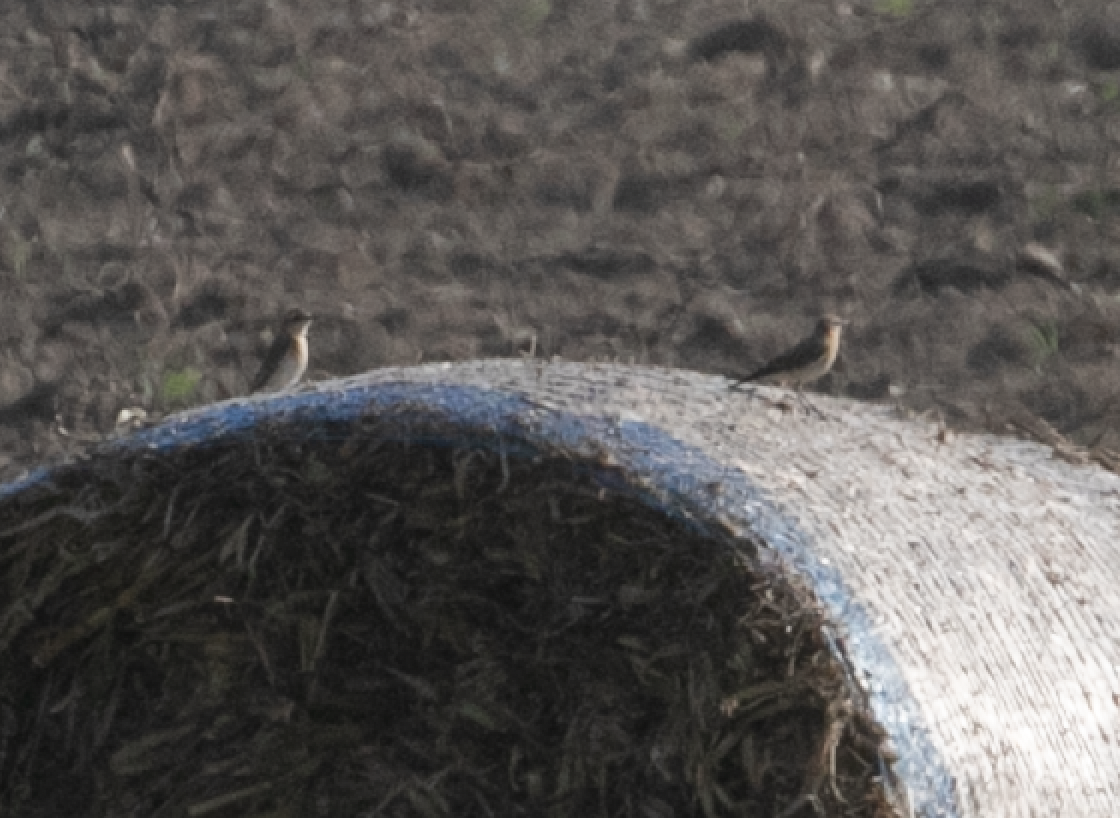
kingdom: Animalia
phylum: Chordata
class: Aves
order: Passeriformes
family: Muscicapidae
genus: Oenanthe
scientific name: Oenanthe oenanthe
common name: Northern wheatear
